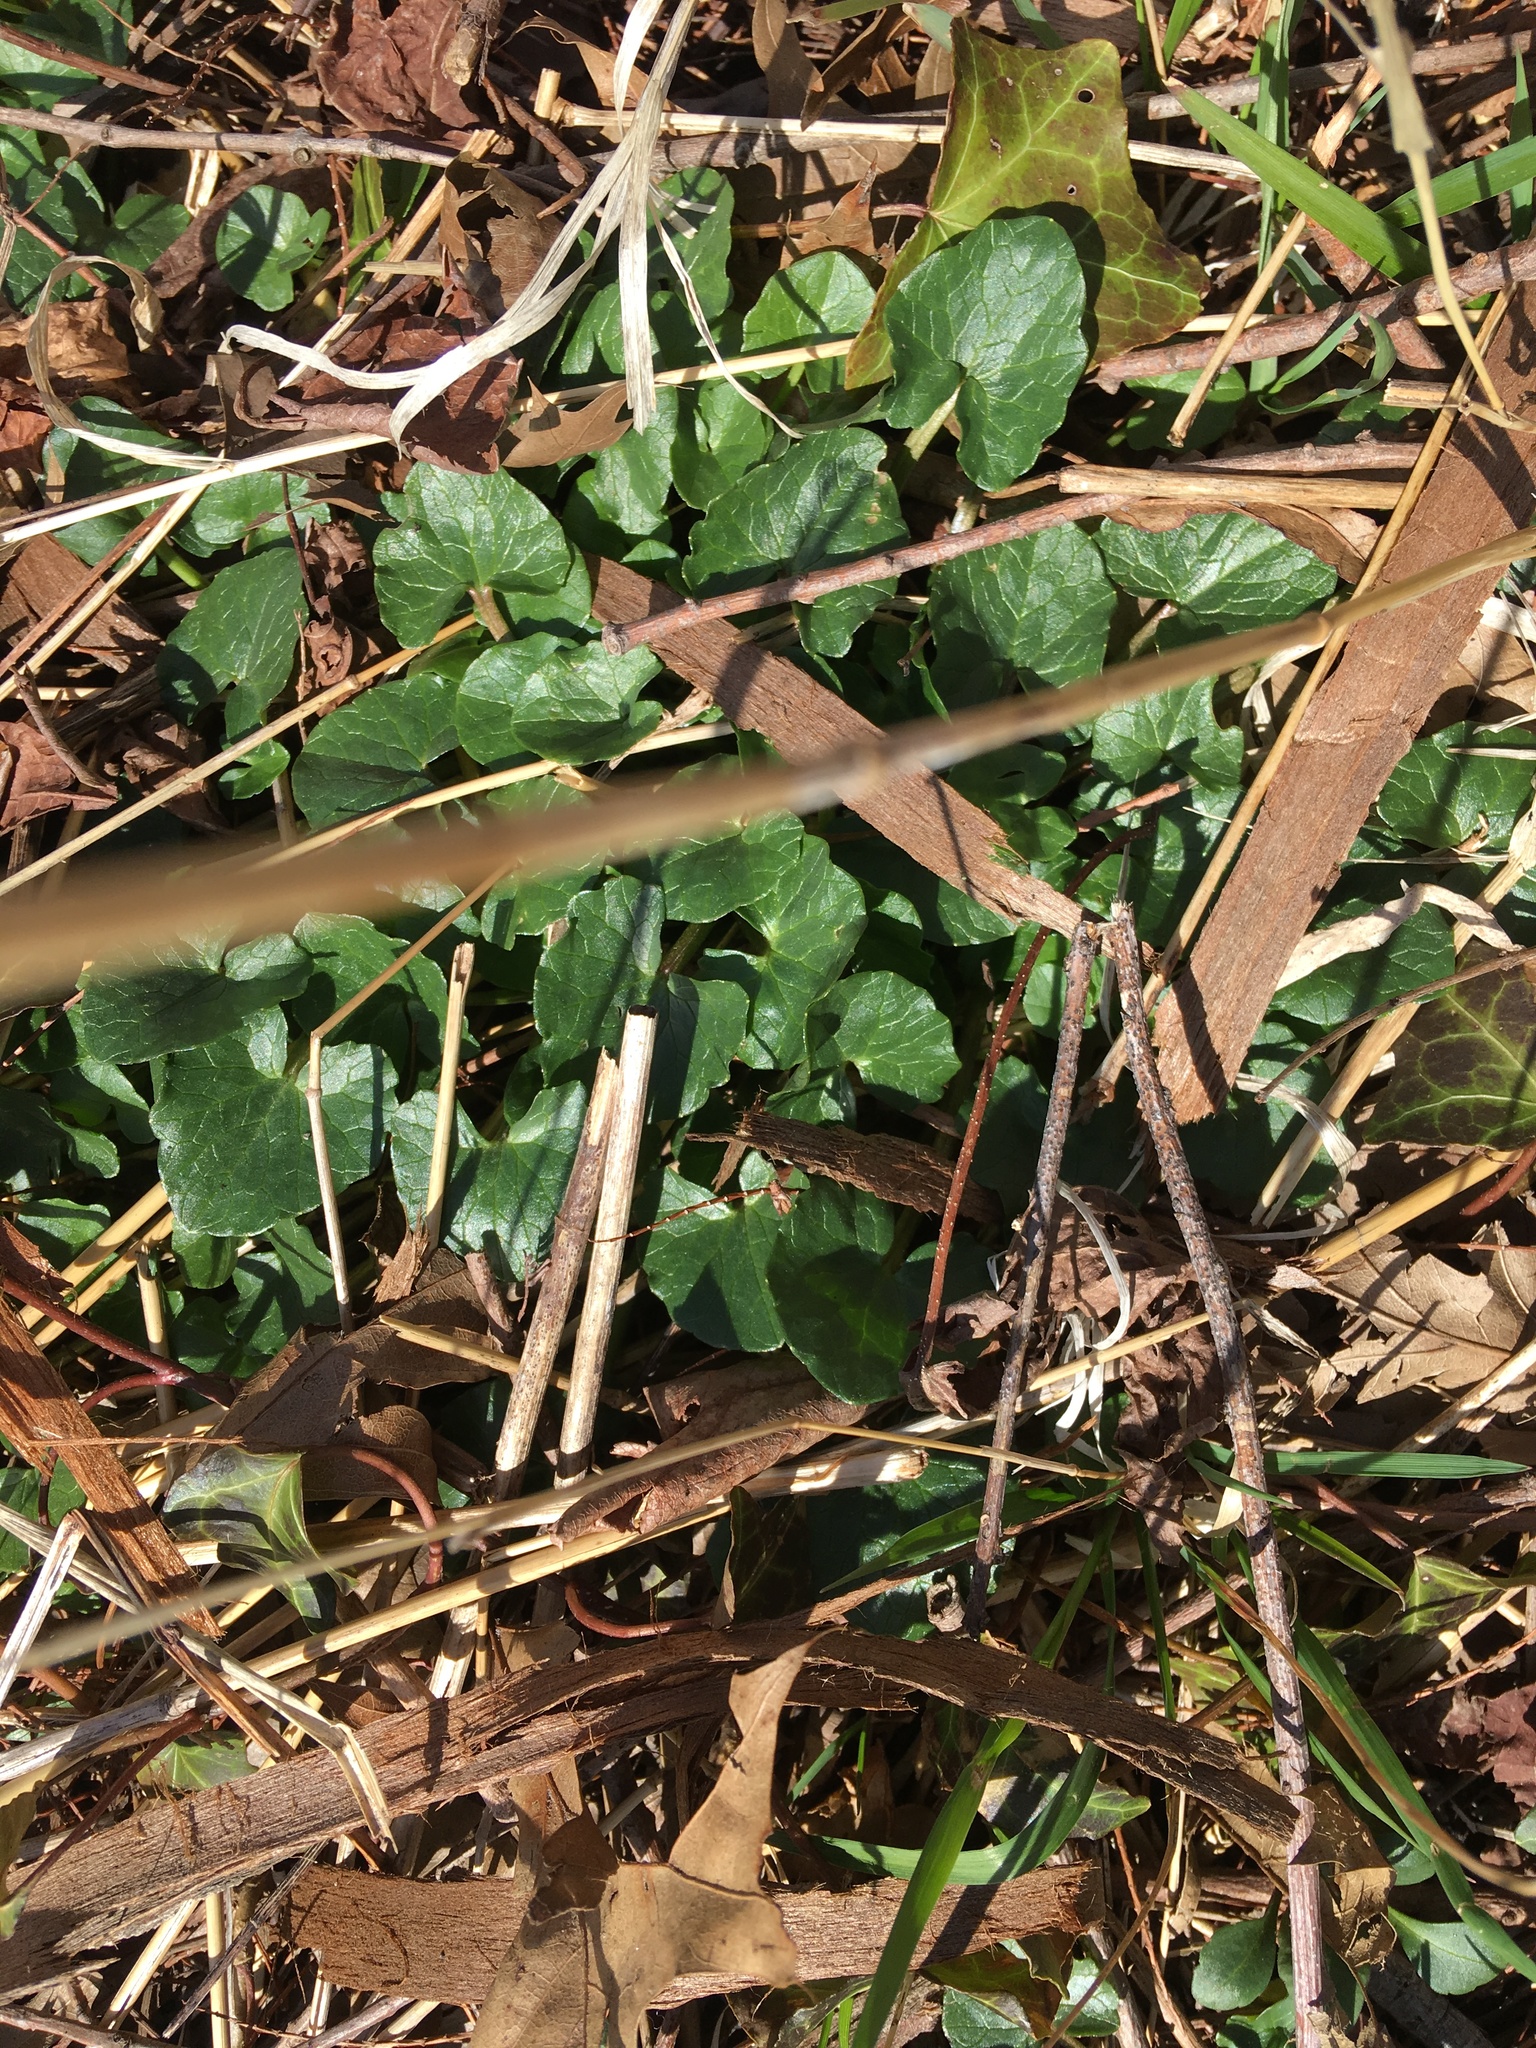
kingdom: Plantae
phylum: Tracheophyta
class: Magnoliopsida
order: Ranunculales
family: Ranunculaceae
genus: Ficaria
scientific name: Ficaria verna
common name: Lesser celandine
